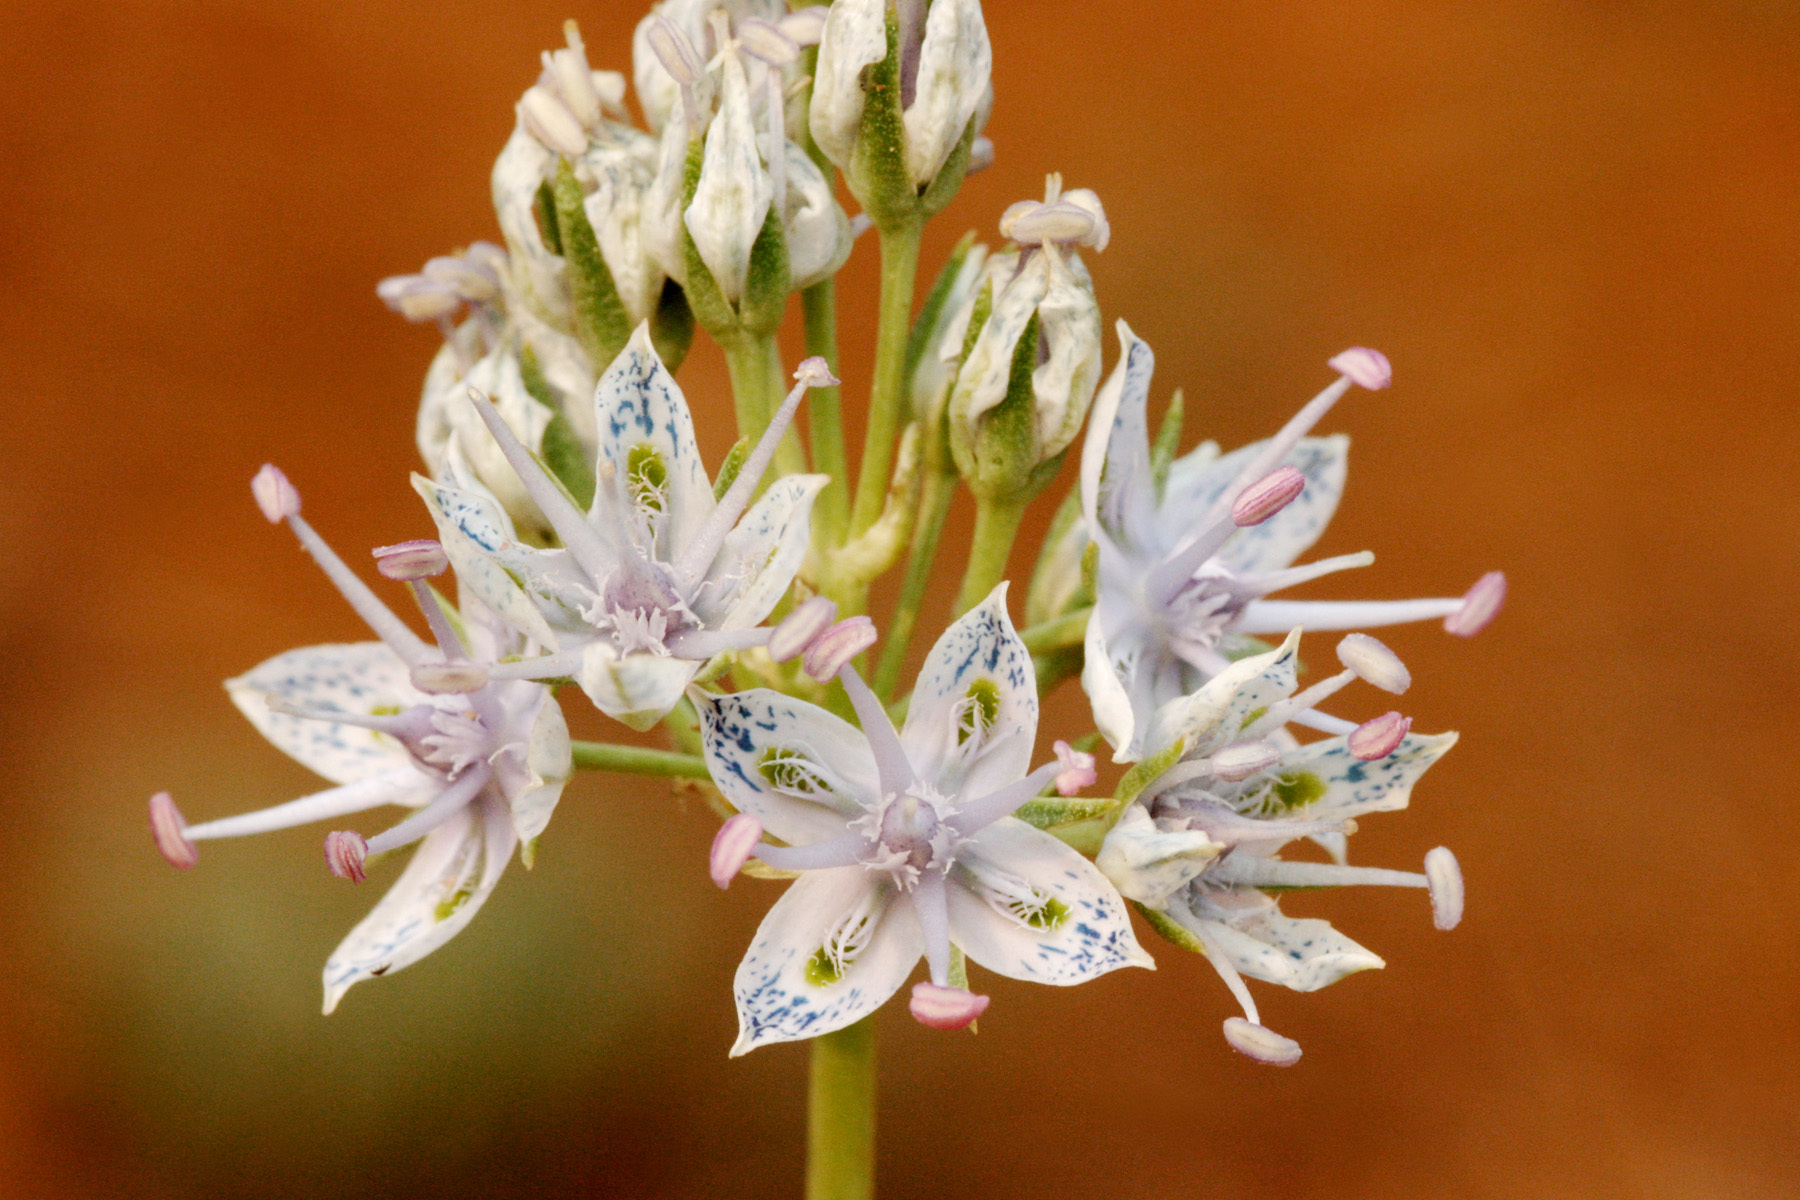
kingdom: Plantae
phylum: Tracheophyta
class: Magnoliopsida
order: Gentianales
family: Gentianaceae
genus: Frasera
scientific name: Frasera albicaulis
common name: Cusick's frasera
